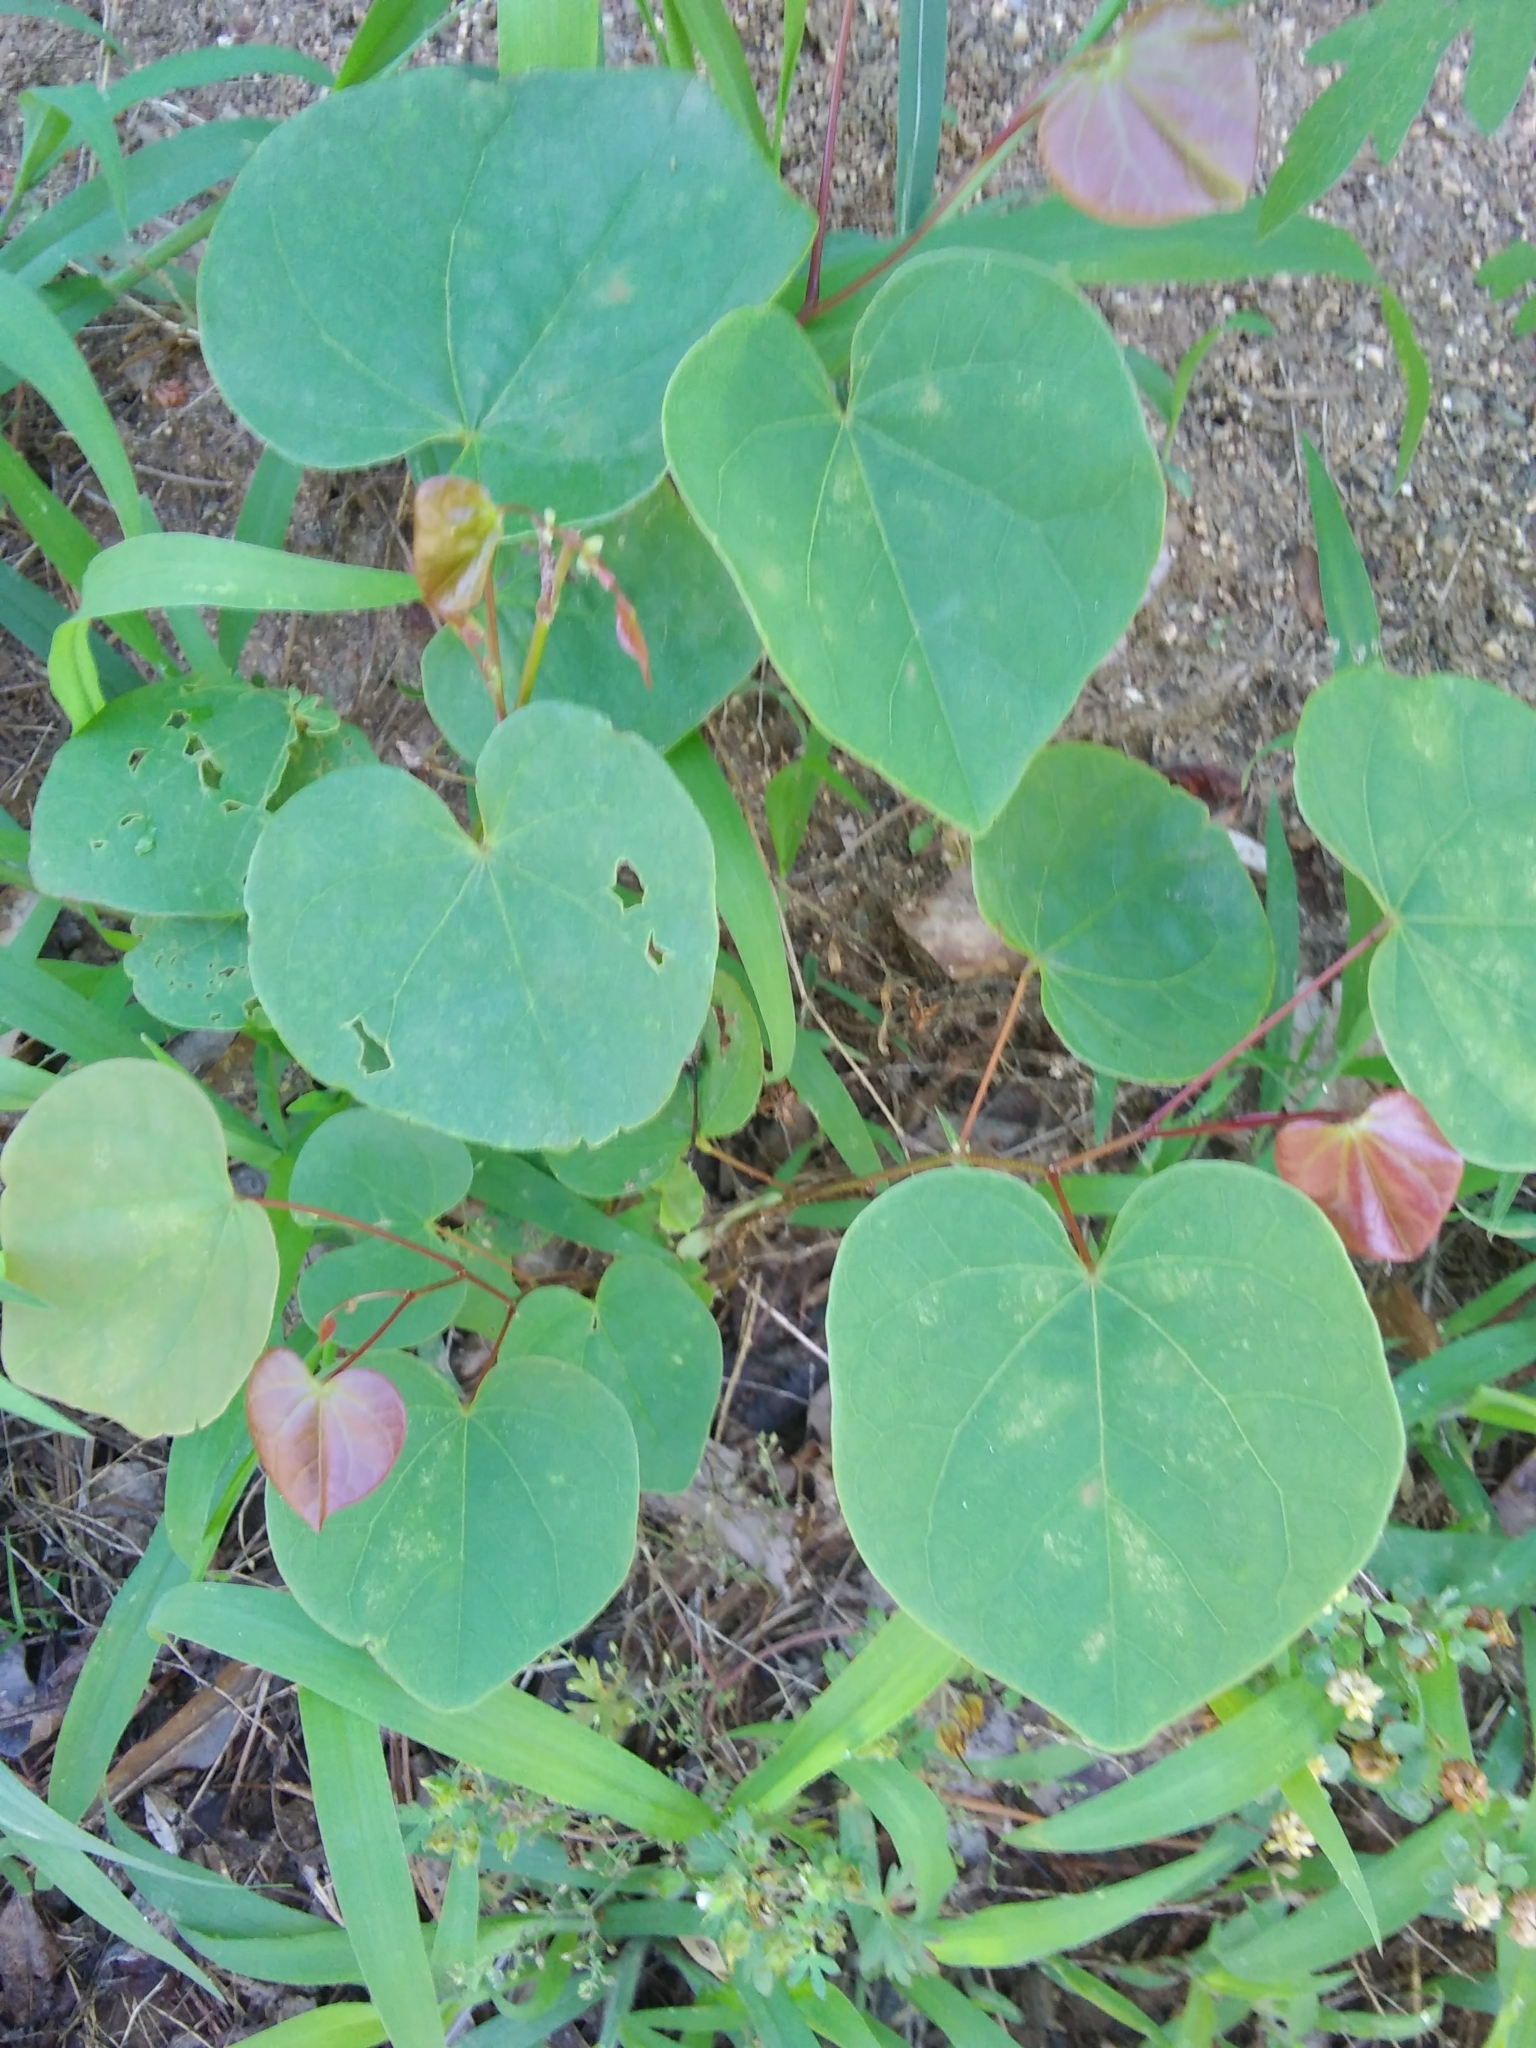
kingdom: Plantae
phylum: Tracheophyta
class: Magnoliopsida
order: Fabales
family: Fabaceae
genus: Cercis
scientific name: Cercis canadensis
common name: Eastern redbud
